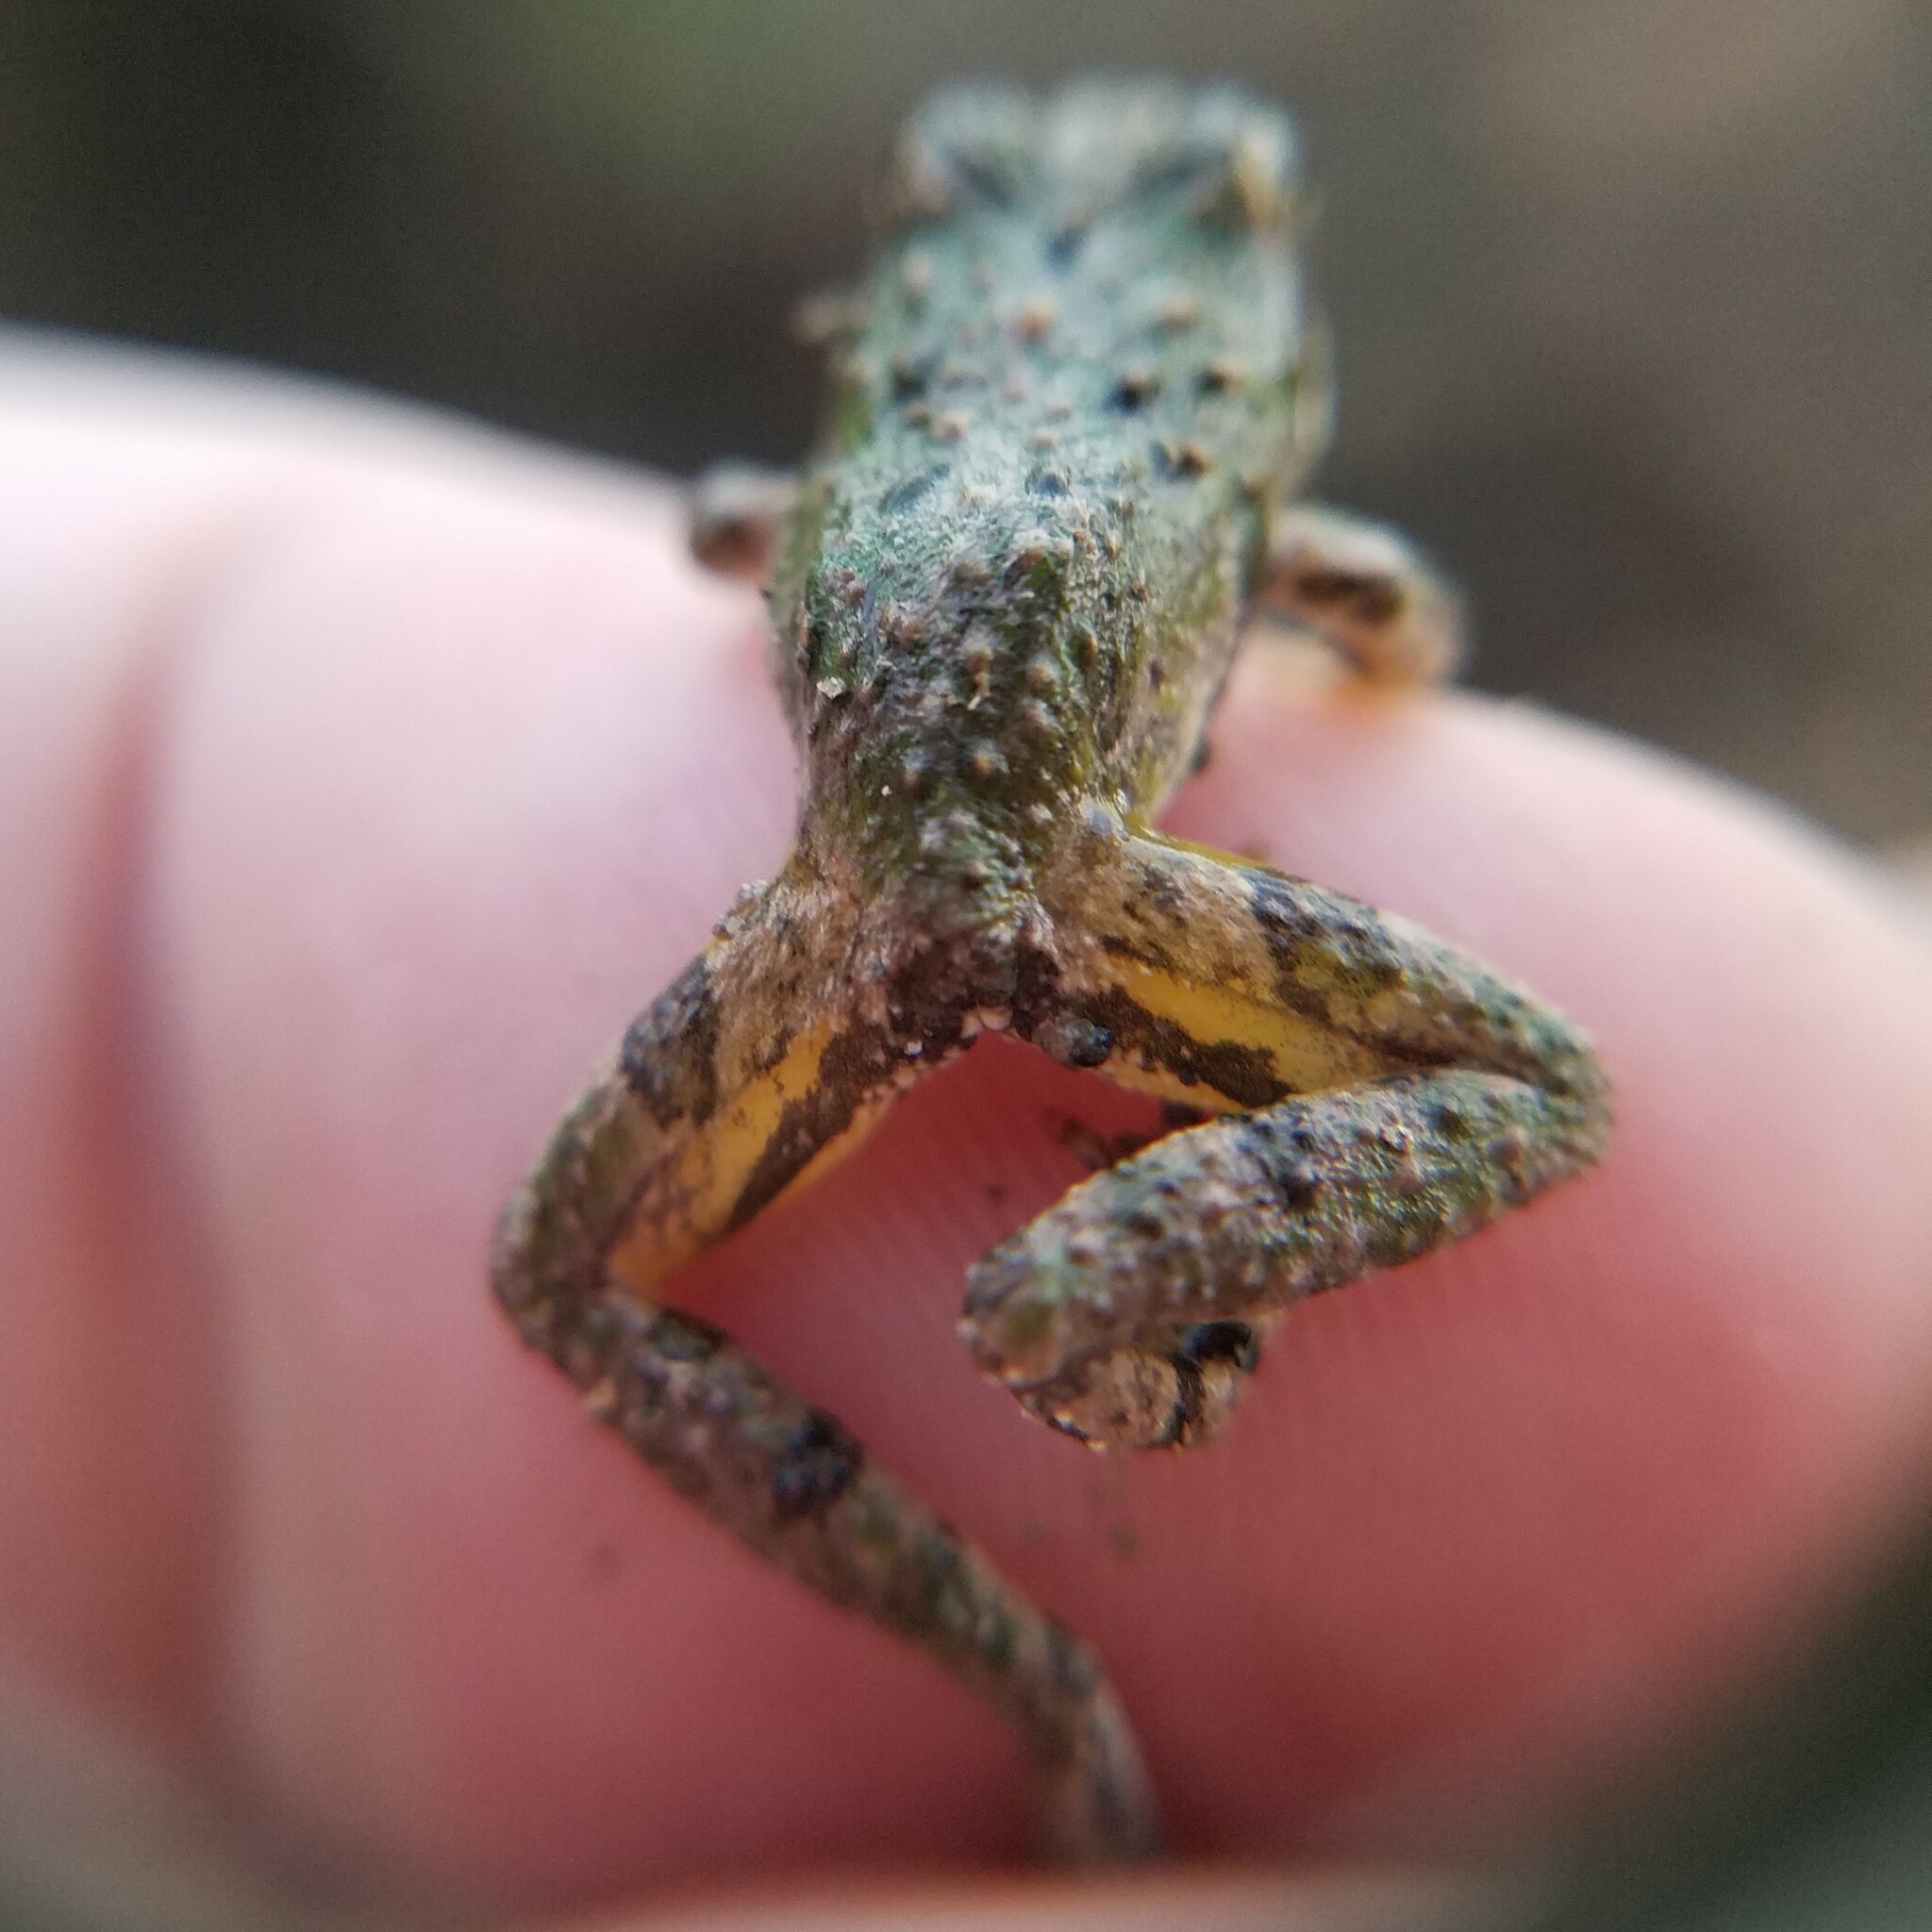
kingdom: Animalia
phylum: Chordata
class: Amphibia
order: Anura
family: Hylidae
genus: Acris
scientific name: Acris crepitans
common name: Northern cricket frog
